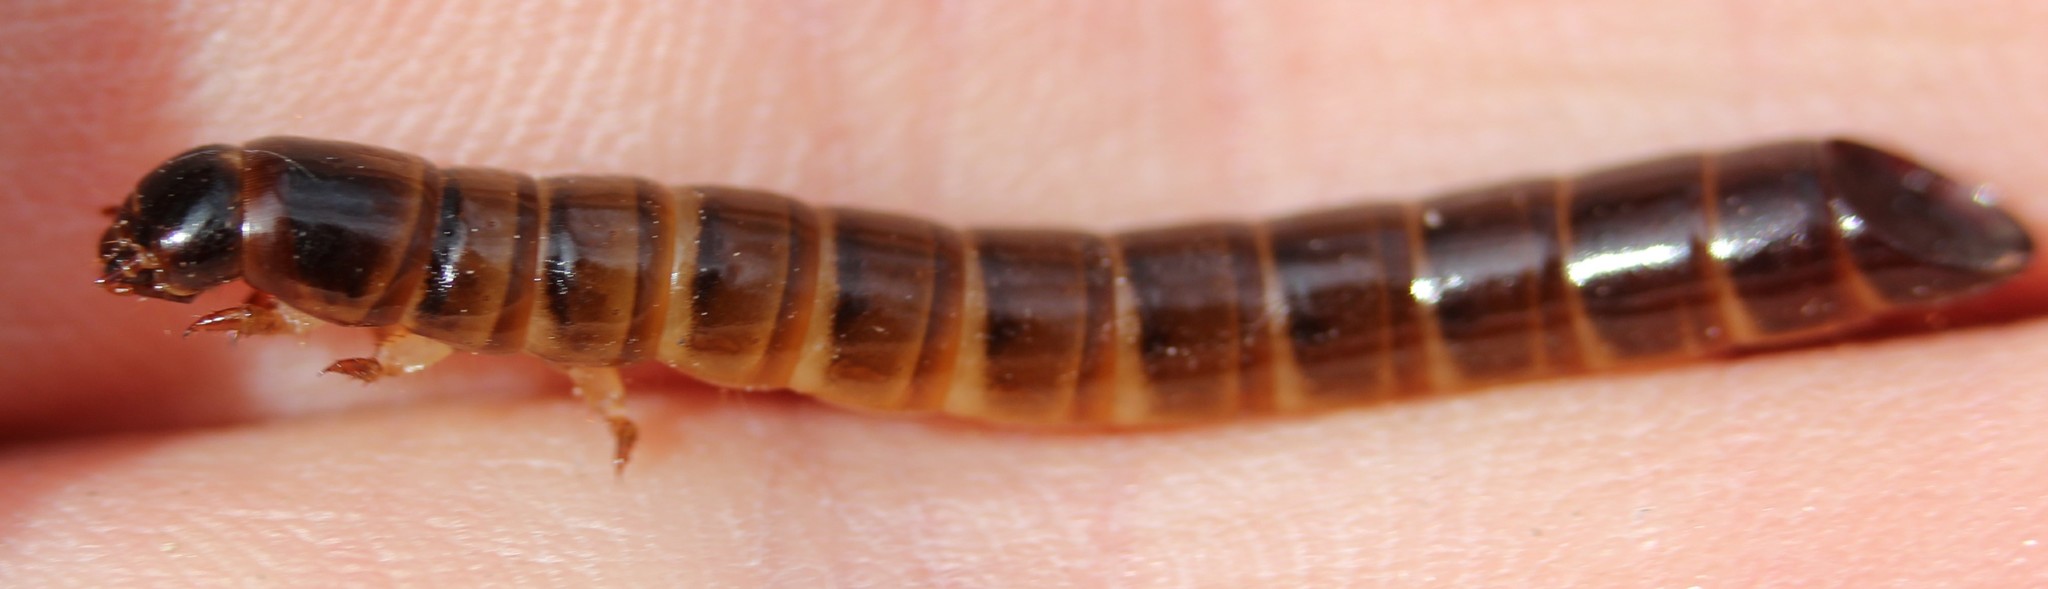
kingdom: Animalia
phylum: Arthropoda
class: Insecta
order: Coleoptera
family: Tenebrionidae
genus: Meracantha
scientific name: Meracantha contracta
